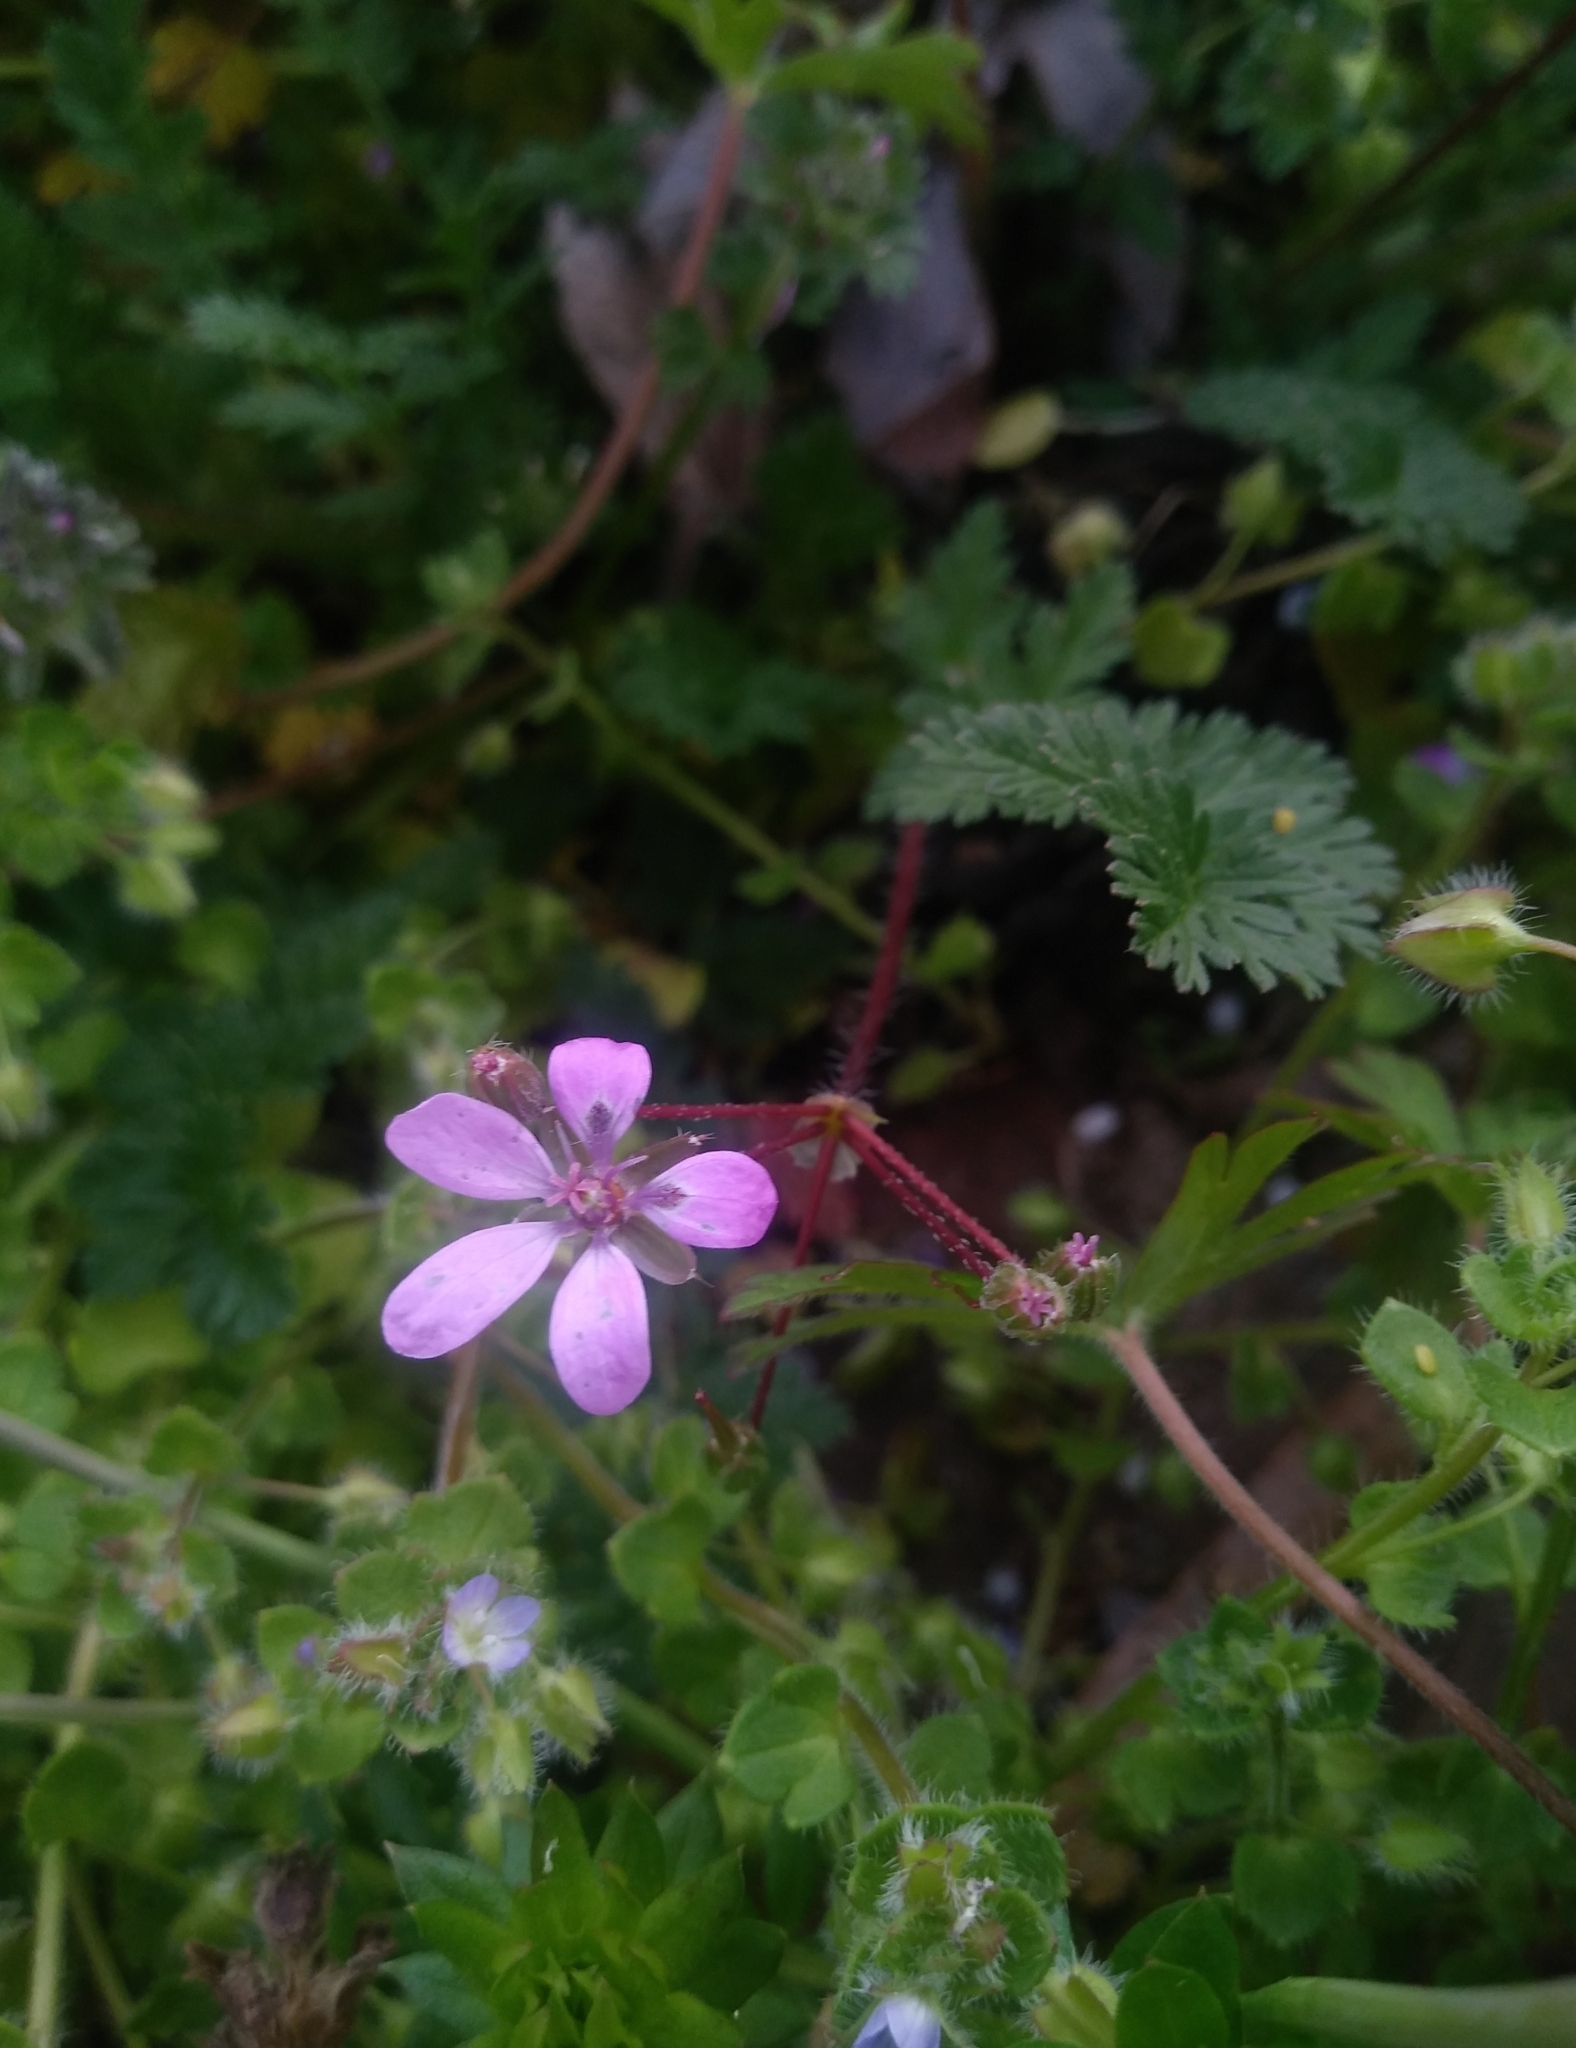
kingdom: Plantae
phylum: Tracheophyta
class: Magnoliopsida
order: Geraniales
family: Geraniaceae
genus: Erodium
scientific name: Erodium cicutarium
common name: Common stork's-bill
